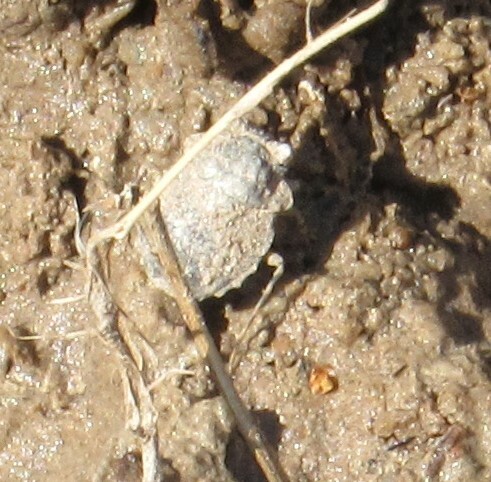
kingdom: Animalia
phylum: Arthropoda
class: Insecta
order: Hemiptera
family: Gelastocoridae
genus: Gelastocoris
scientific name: Gelastocoris oculatus
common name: Toad bug
